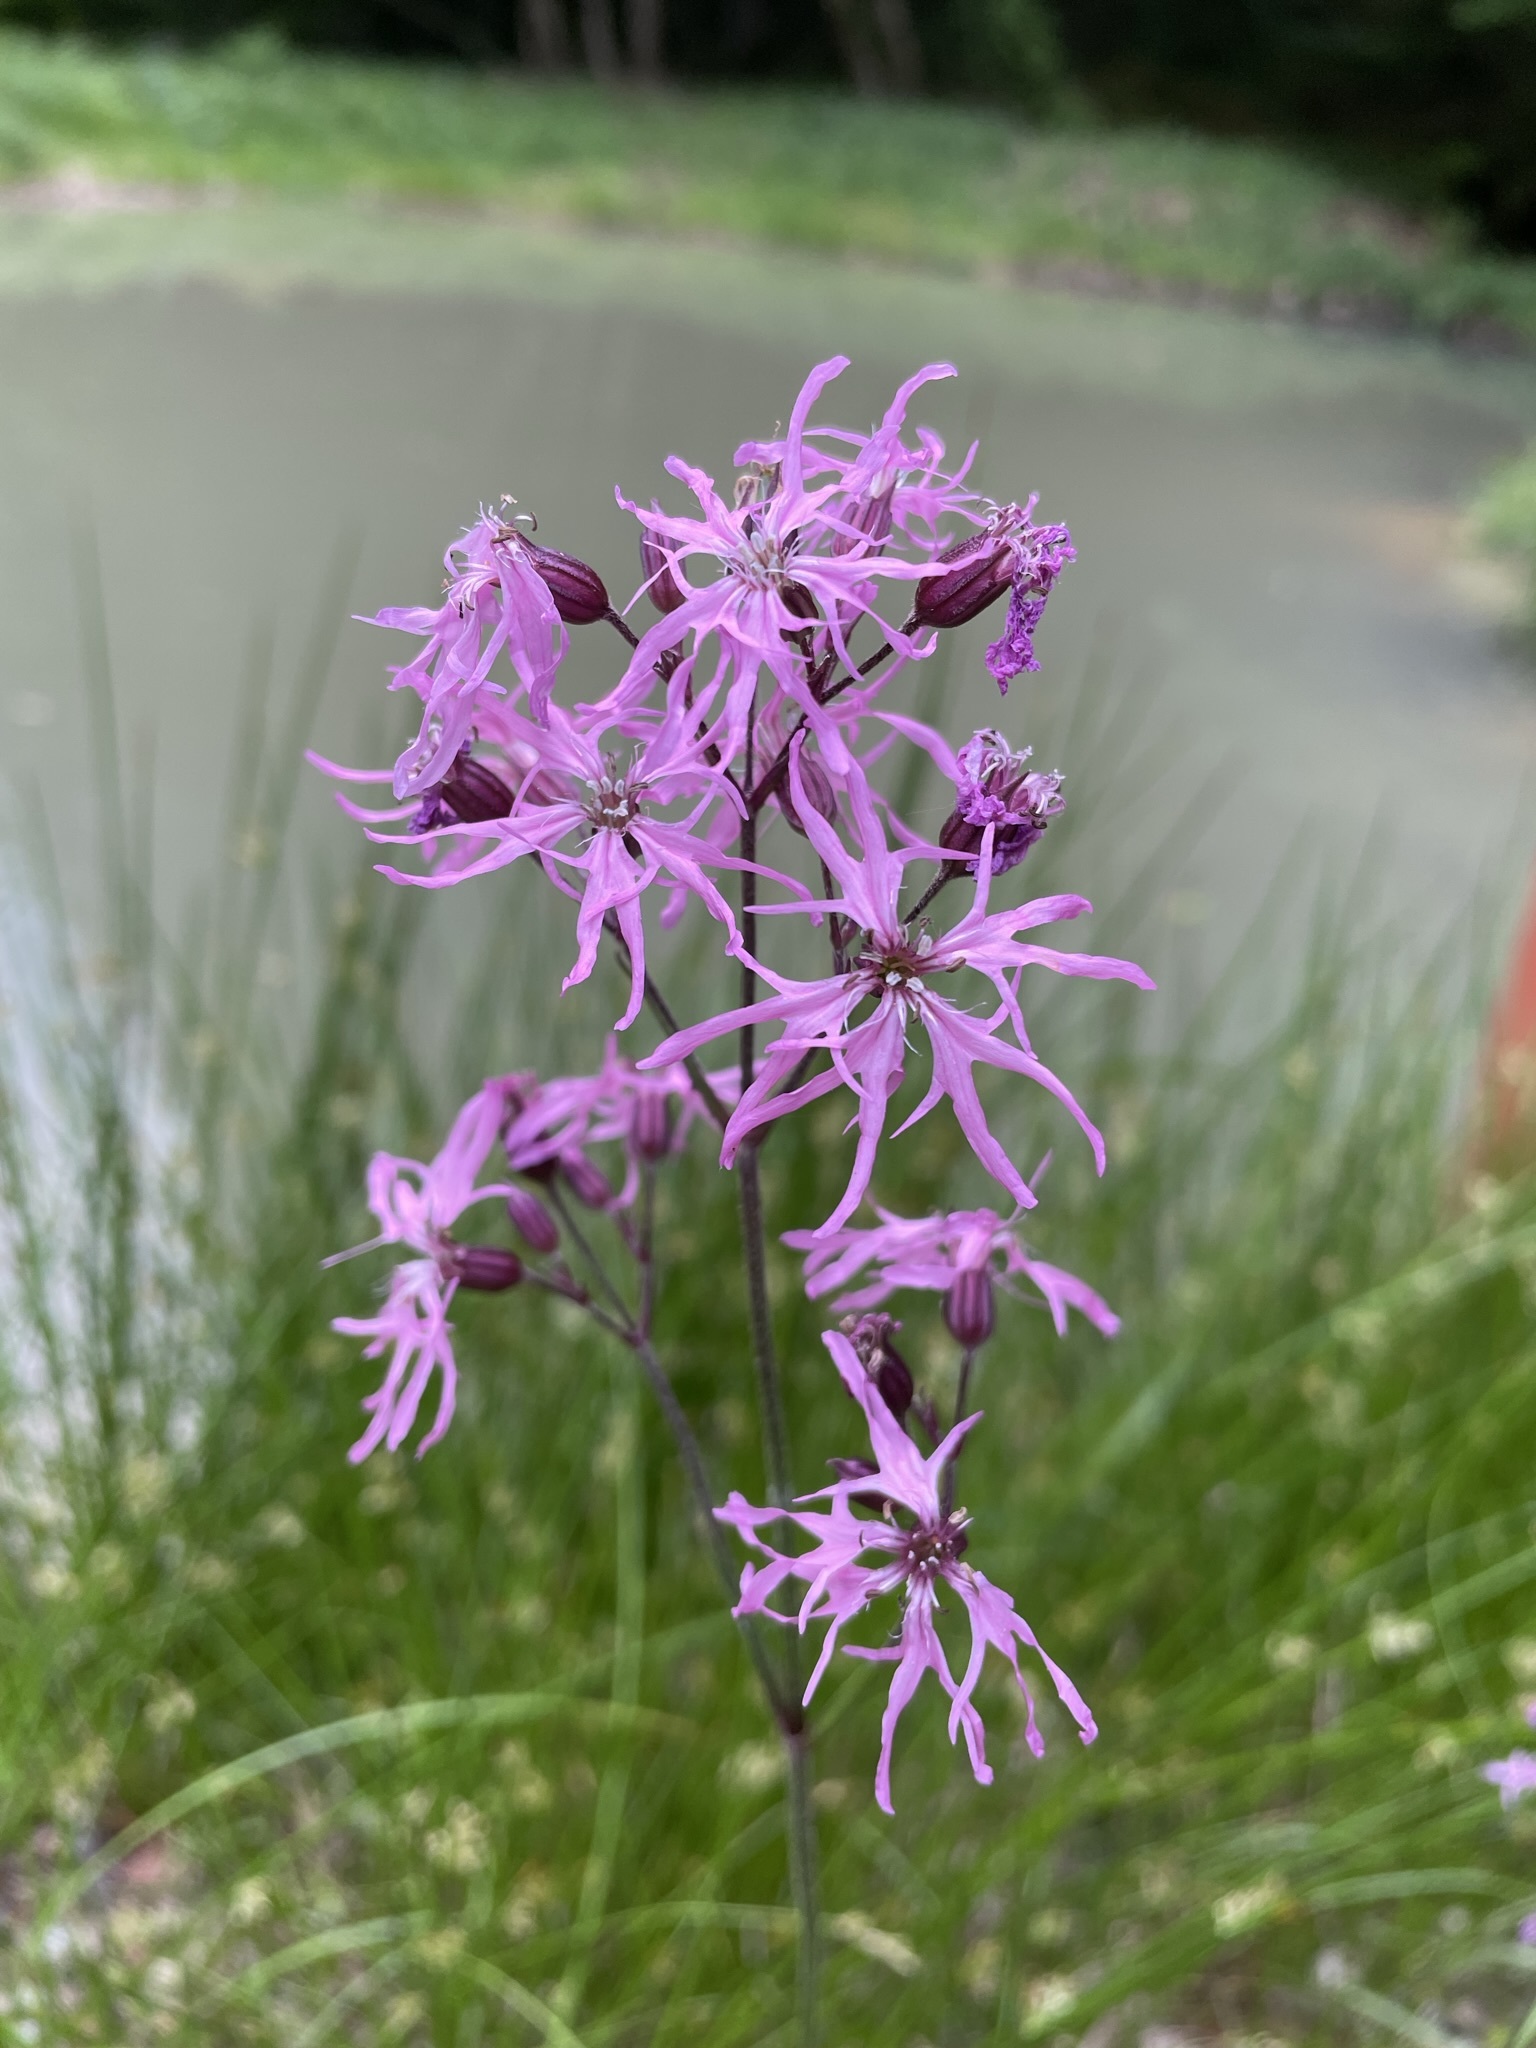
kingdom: Plantae
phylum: Tracheophyta
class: Magnoliopsida
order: Caryophyllales
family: Caryophyllaceae
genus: Silene
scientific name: Silene flos-cuculi
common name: Ragged-robin
